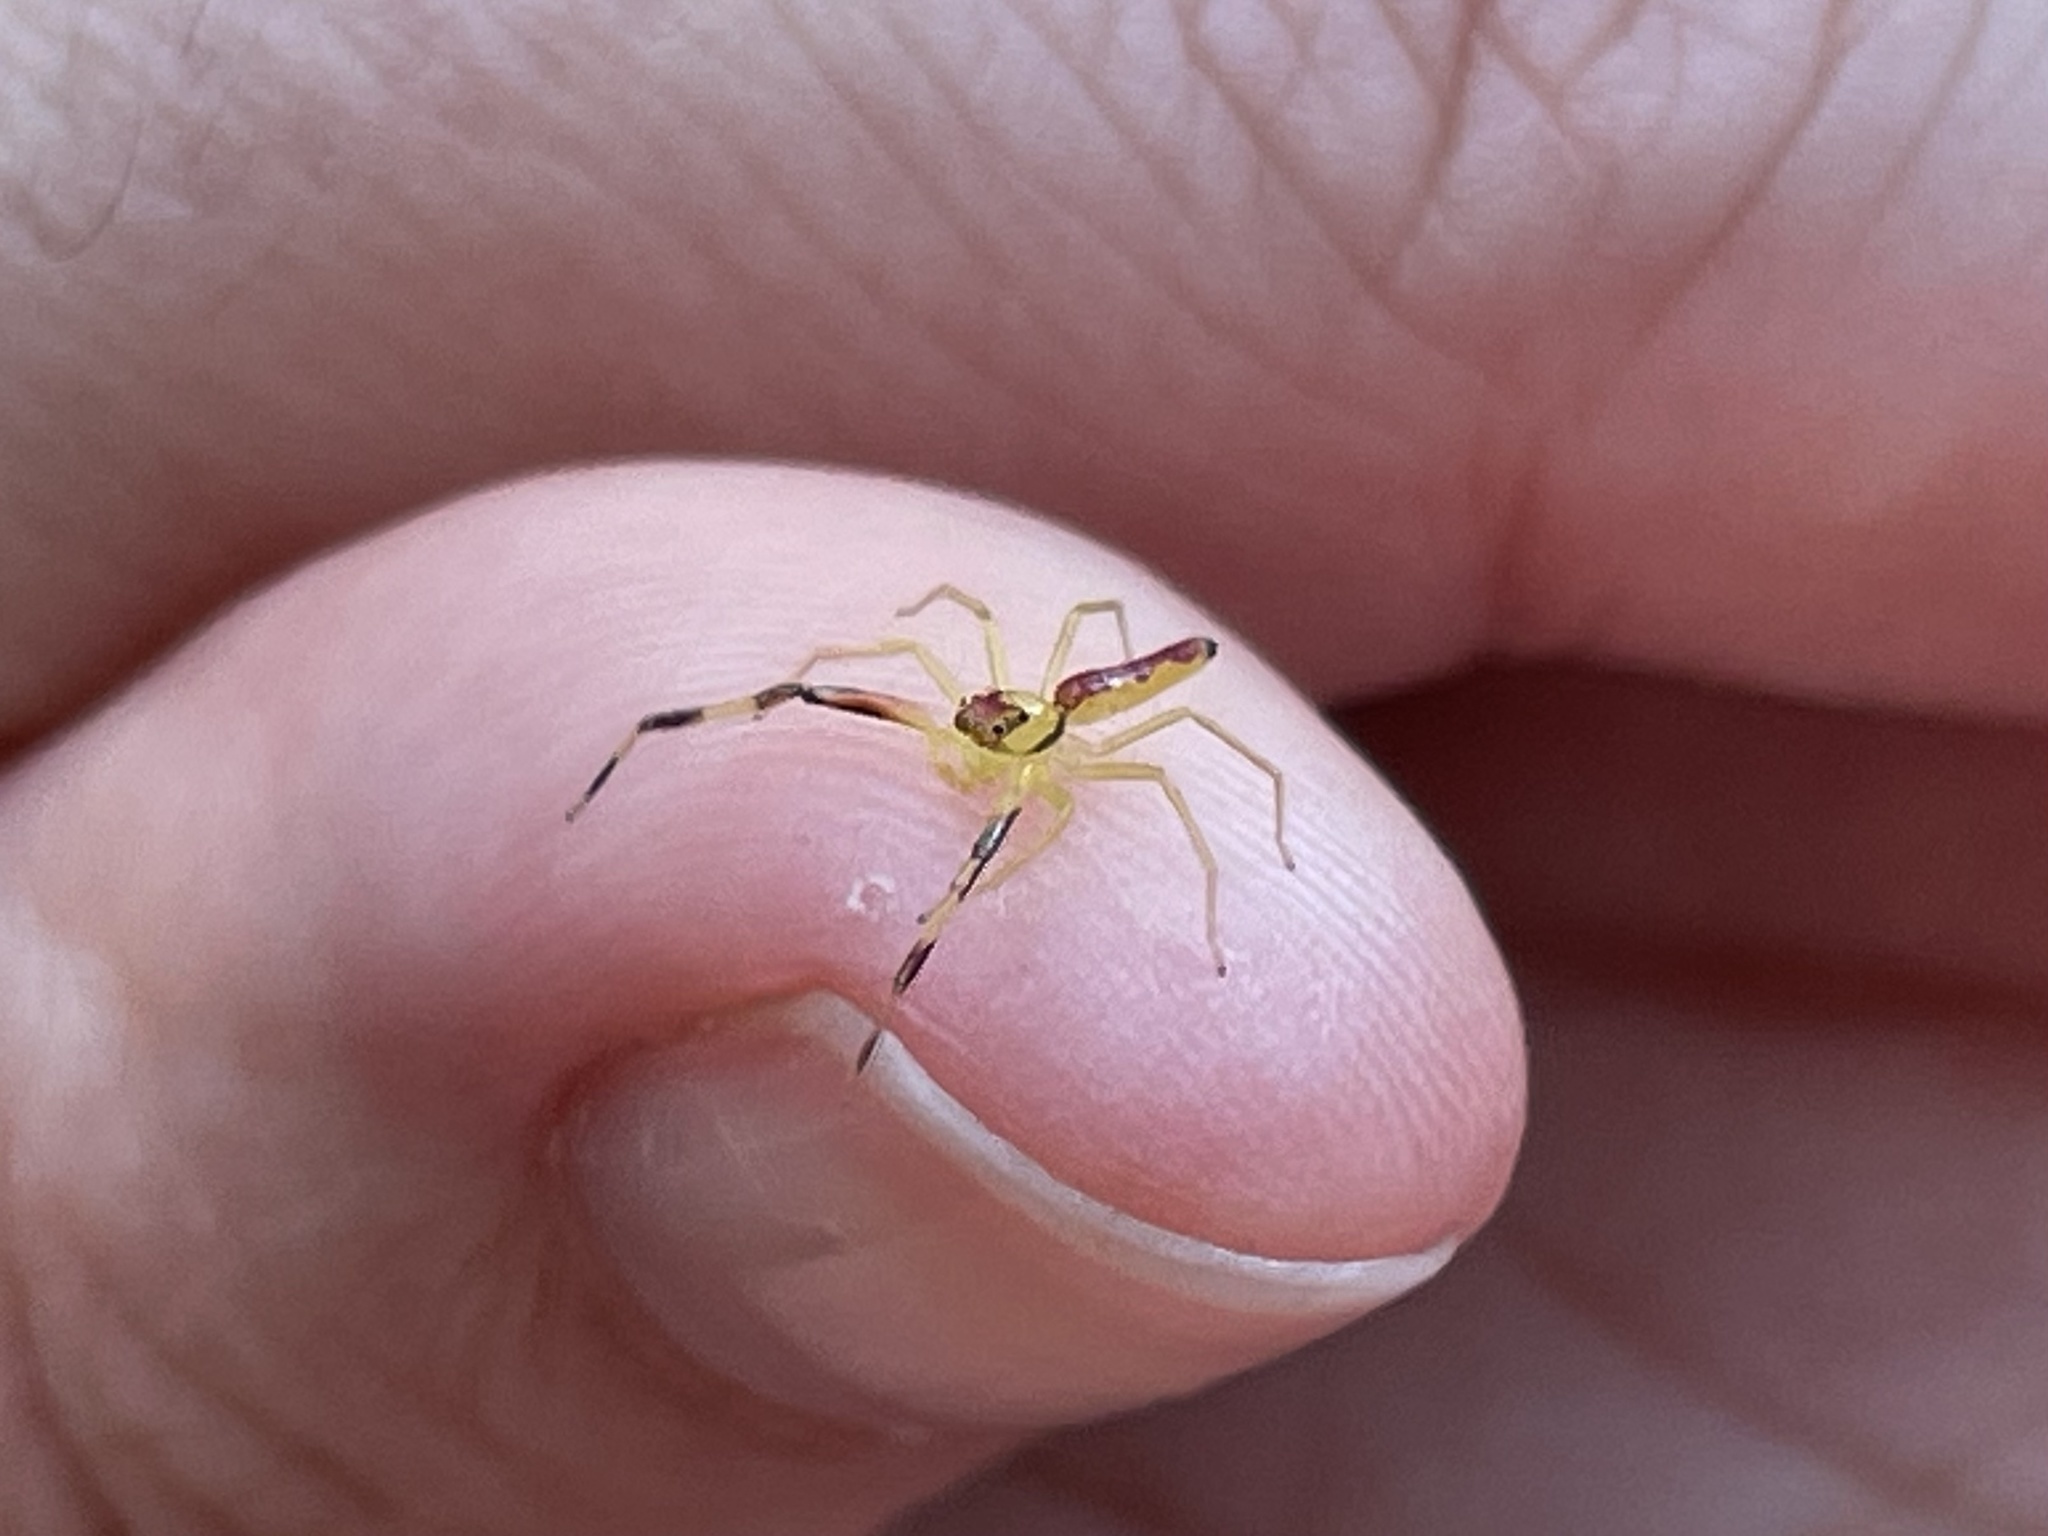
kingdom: Animalia
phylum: Arthropoda
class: Arachnida
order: Araneae
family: Salticidae
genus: Astilodes
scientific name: Astilodes mariae
